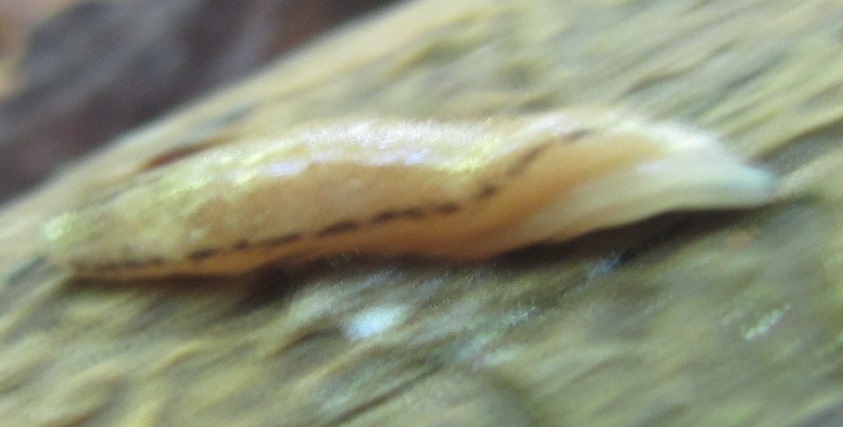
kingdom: Animalia
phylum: Mollusca
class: Gastropoda
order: Stylommatophora
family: Philomycidae
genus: Pallifera
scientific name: Pallifera fosteri
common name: Foster mantleslug
